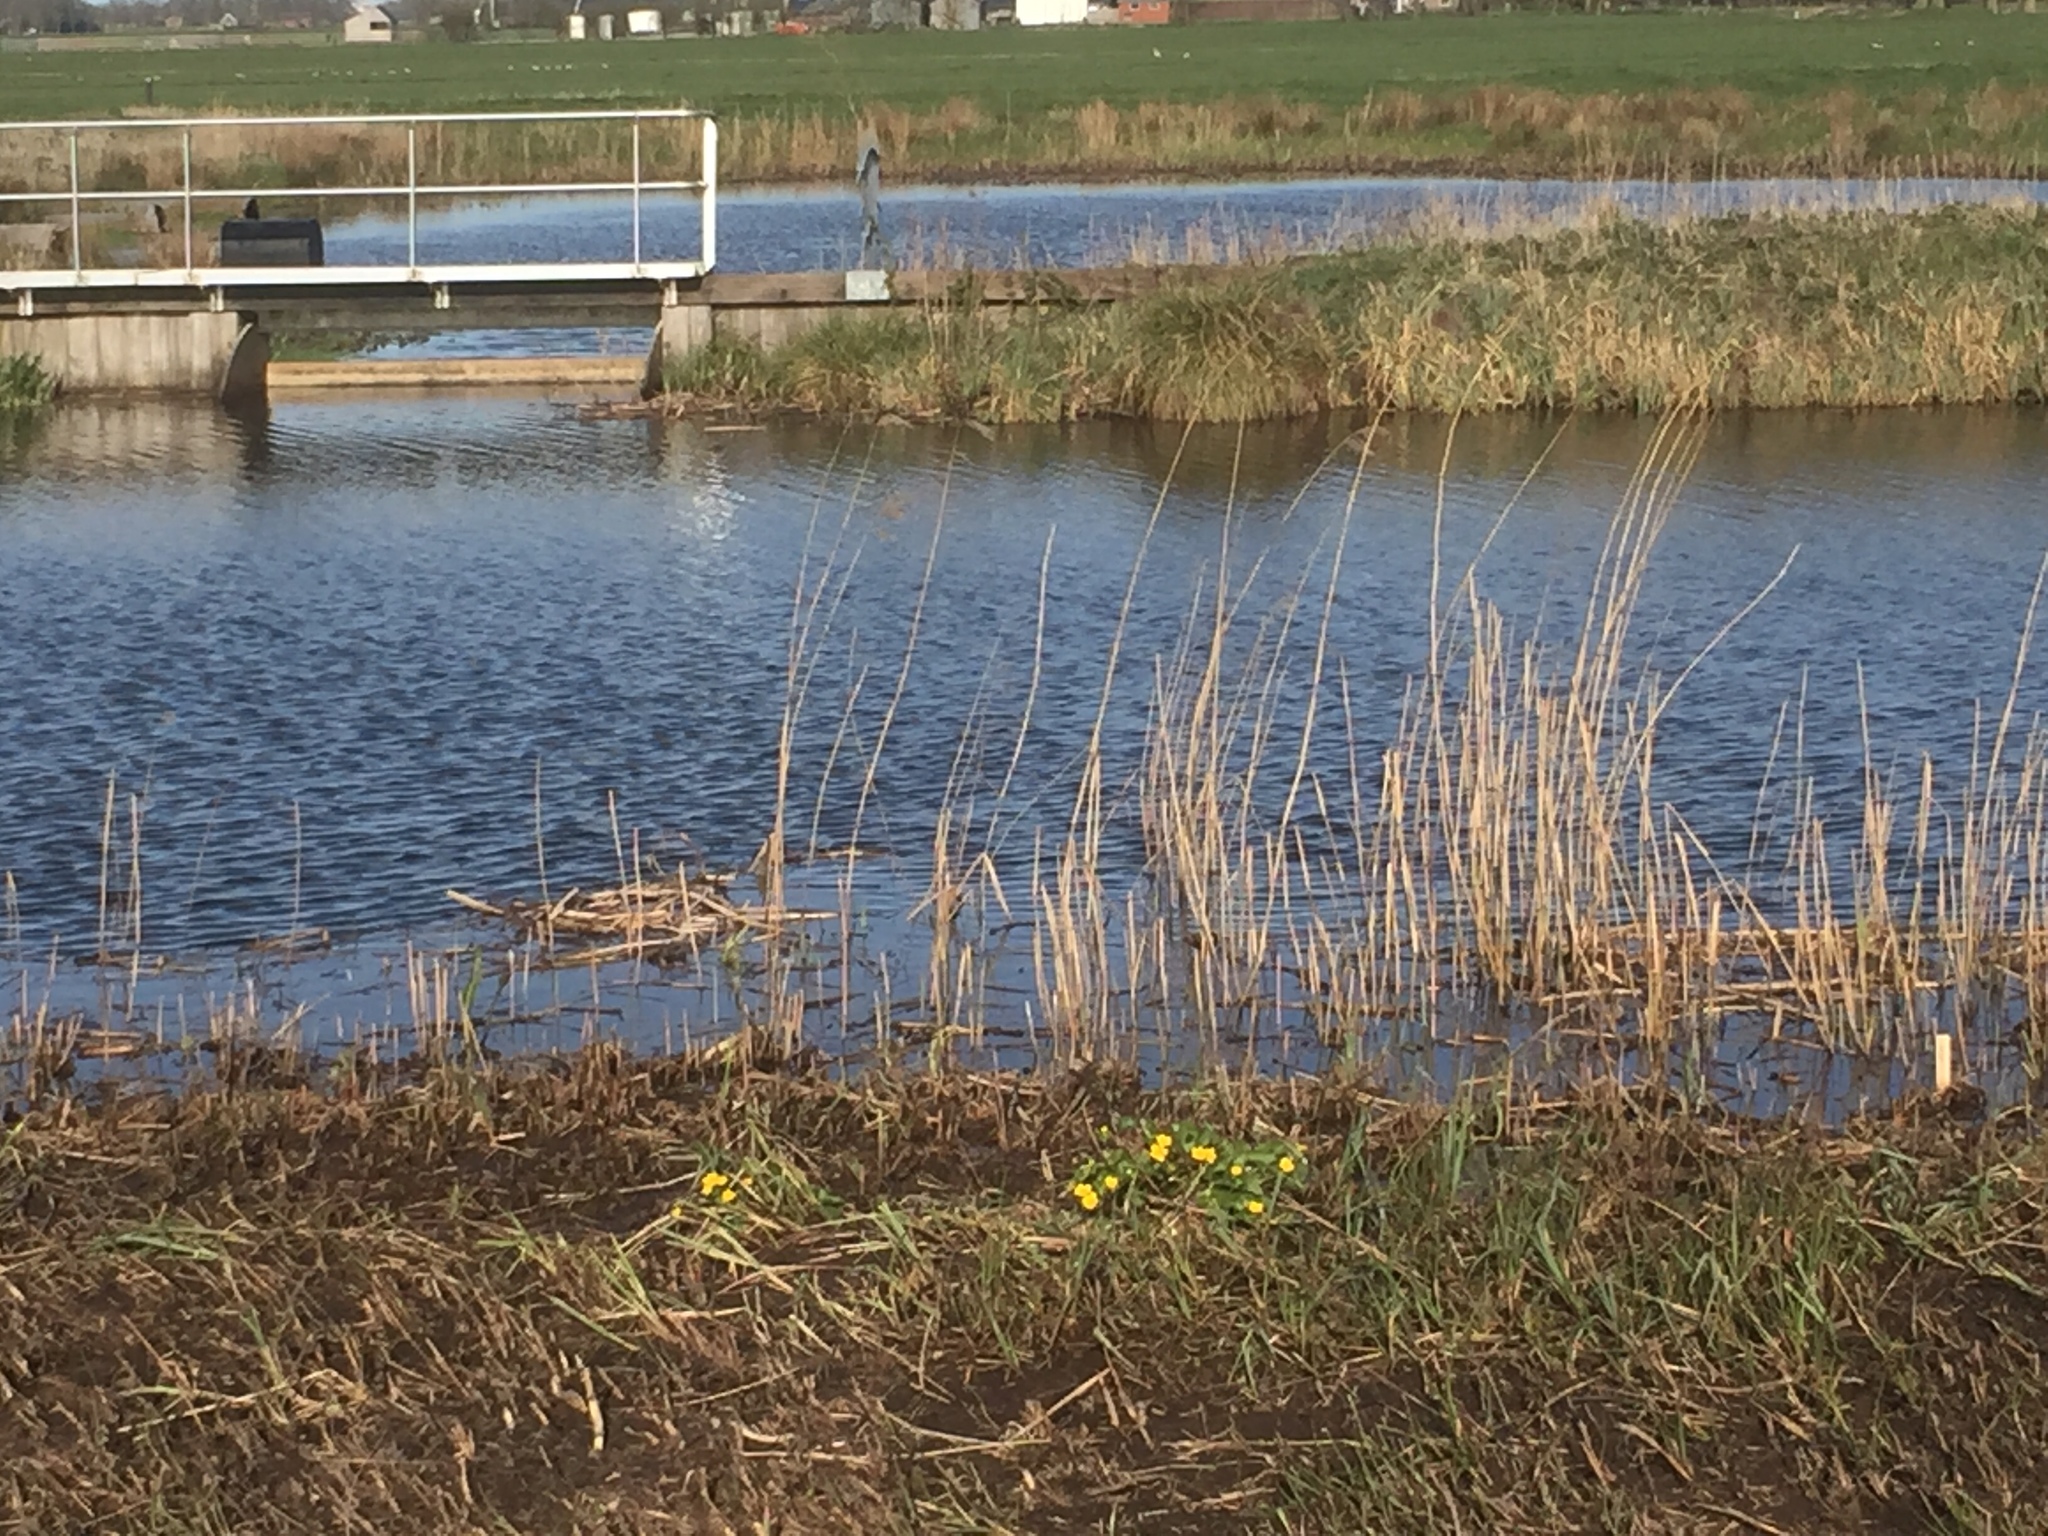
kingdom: Plantae
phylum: Tracheophyta
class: Magnoliopsida
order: Ranunculales
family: Ranunculaceae
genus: Caltha
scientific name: Caltha palustris
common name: Marsh marigold
